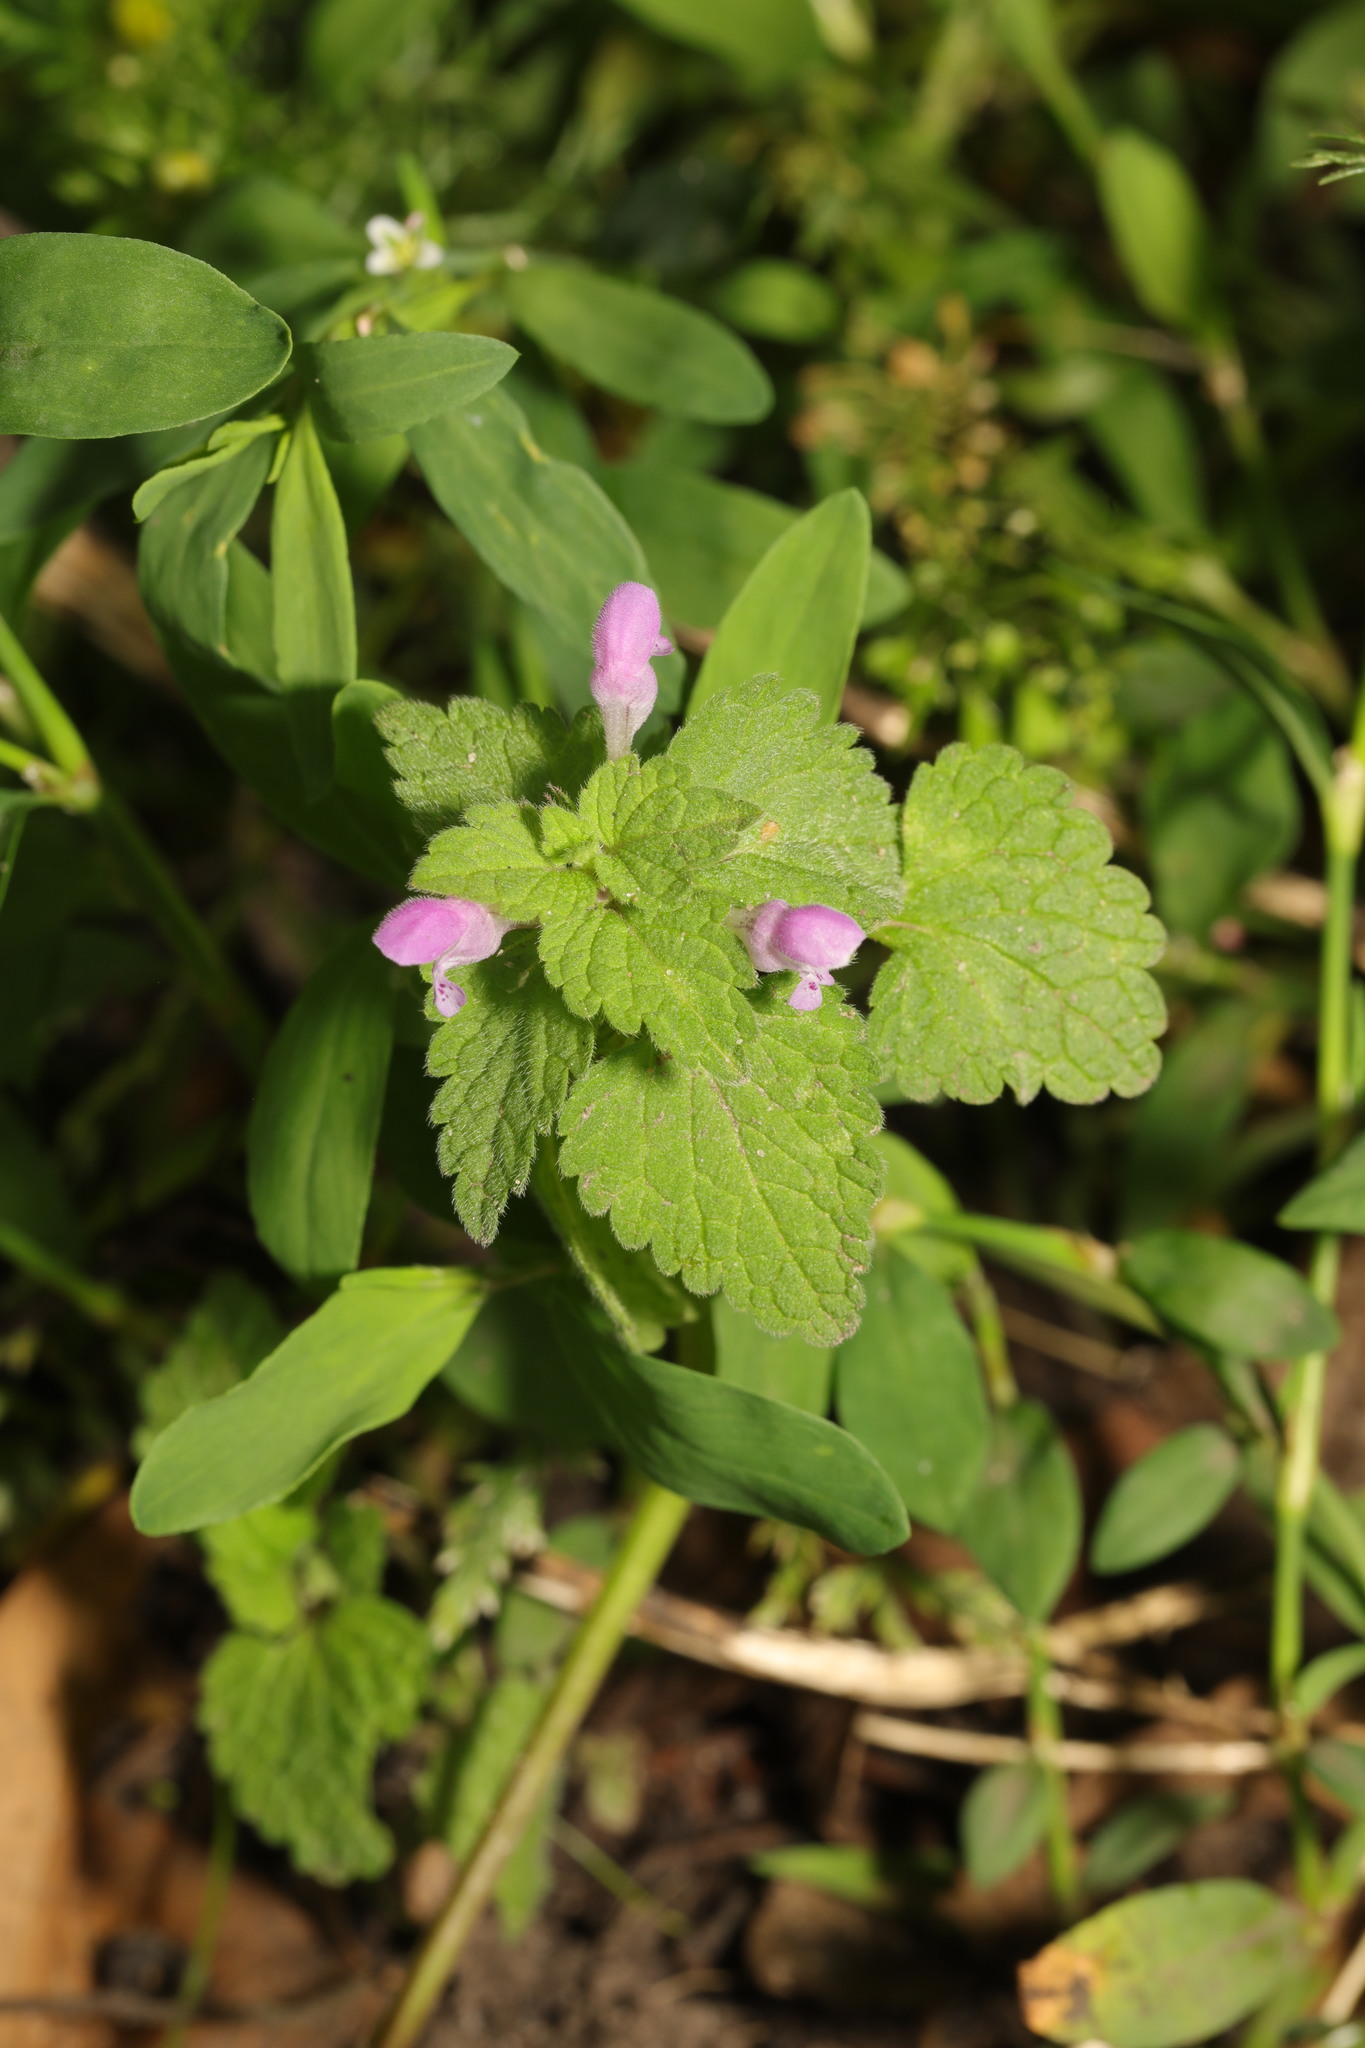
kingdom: Plantae
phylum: Tracheophyta
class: Magnoliopsida
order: Lamiales
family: Lamiaceae
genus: Lamium
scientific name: Lamium purpureum
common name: Red dead-nettle
